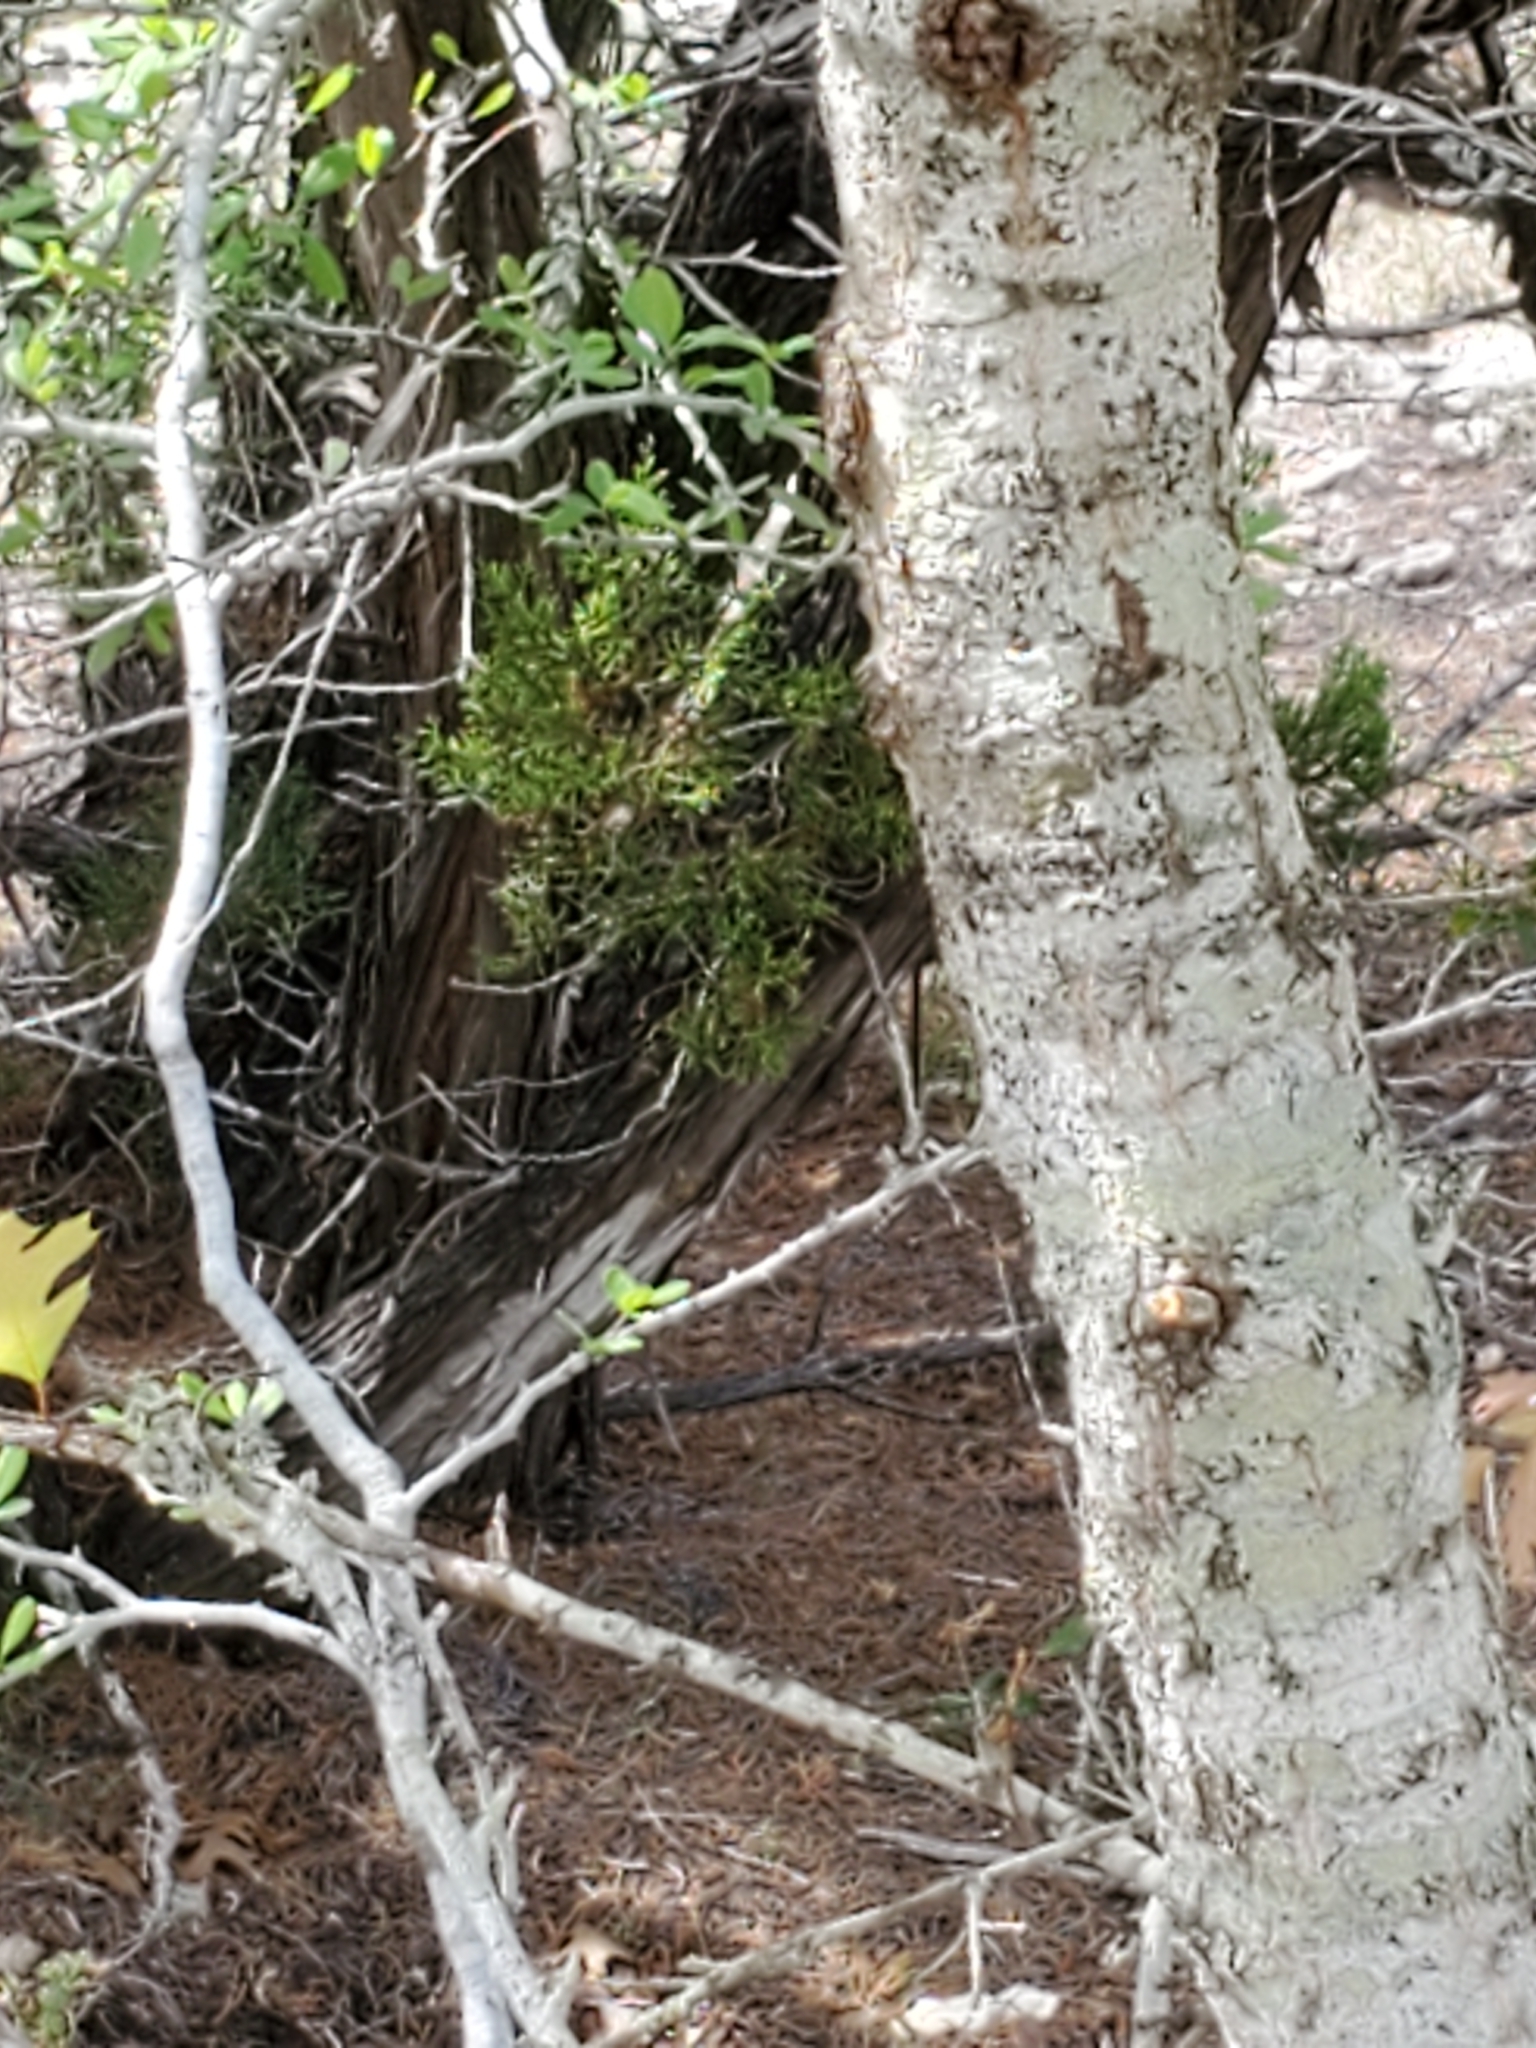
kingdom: Plantae
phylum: Tracheophyta
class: Magnoliopsida
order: Fagales
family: Fagaceae
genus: Quercus
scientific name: Quercus buckleyi
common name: Buckley oak
